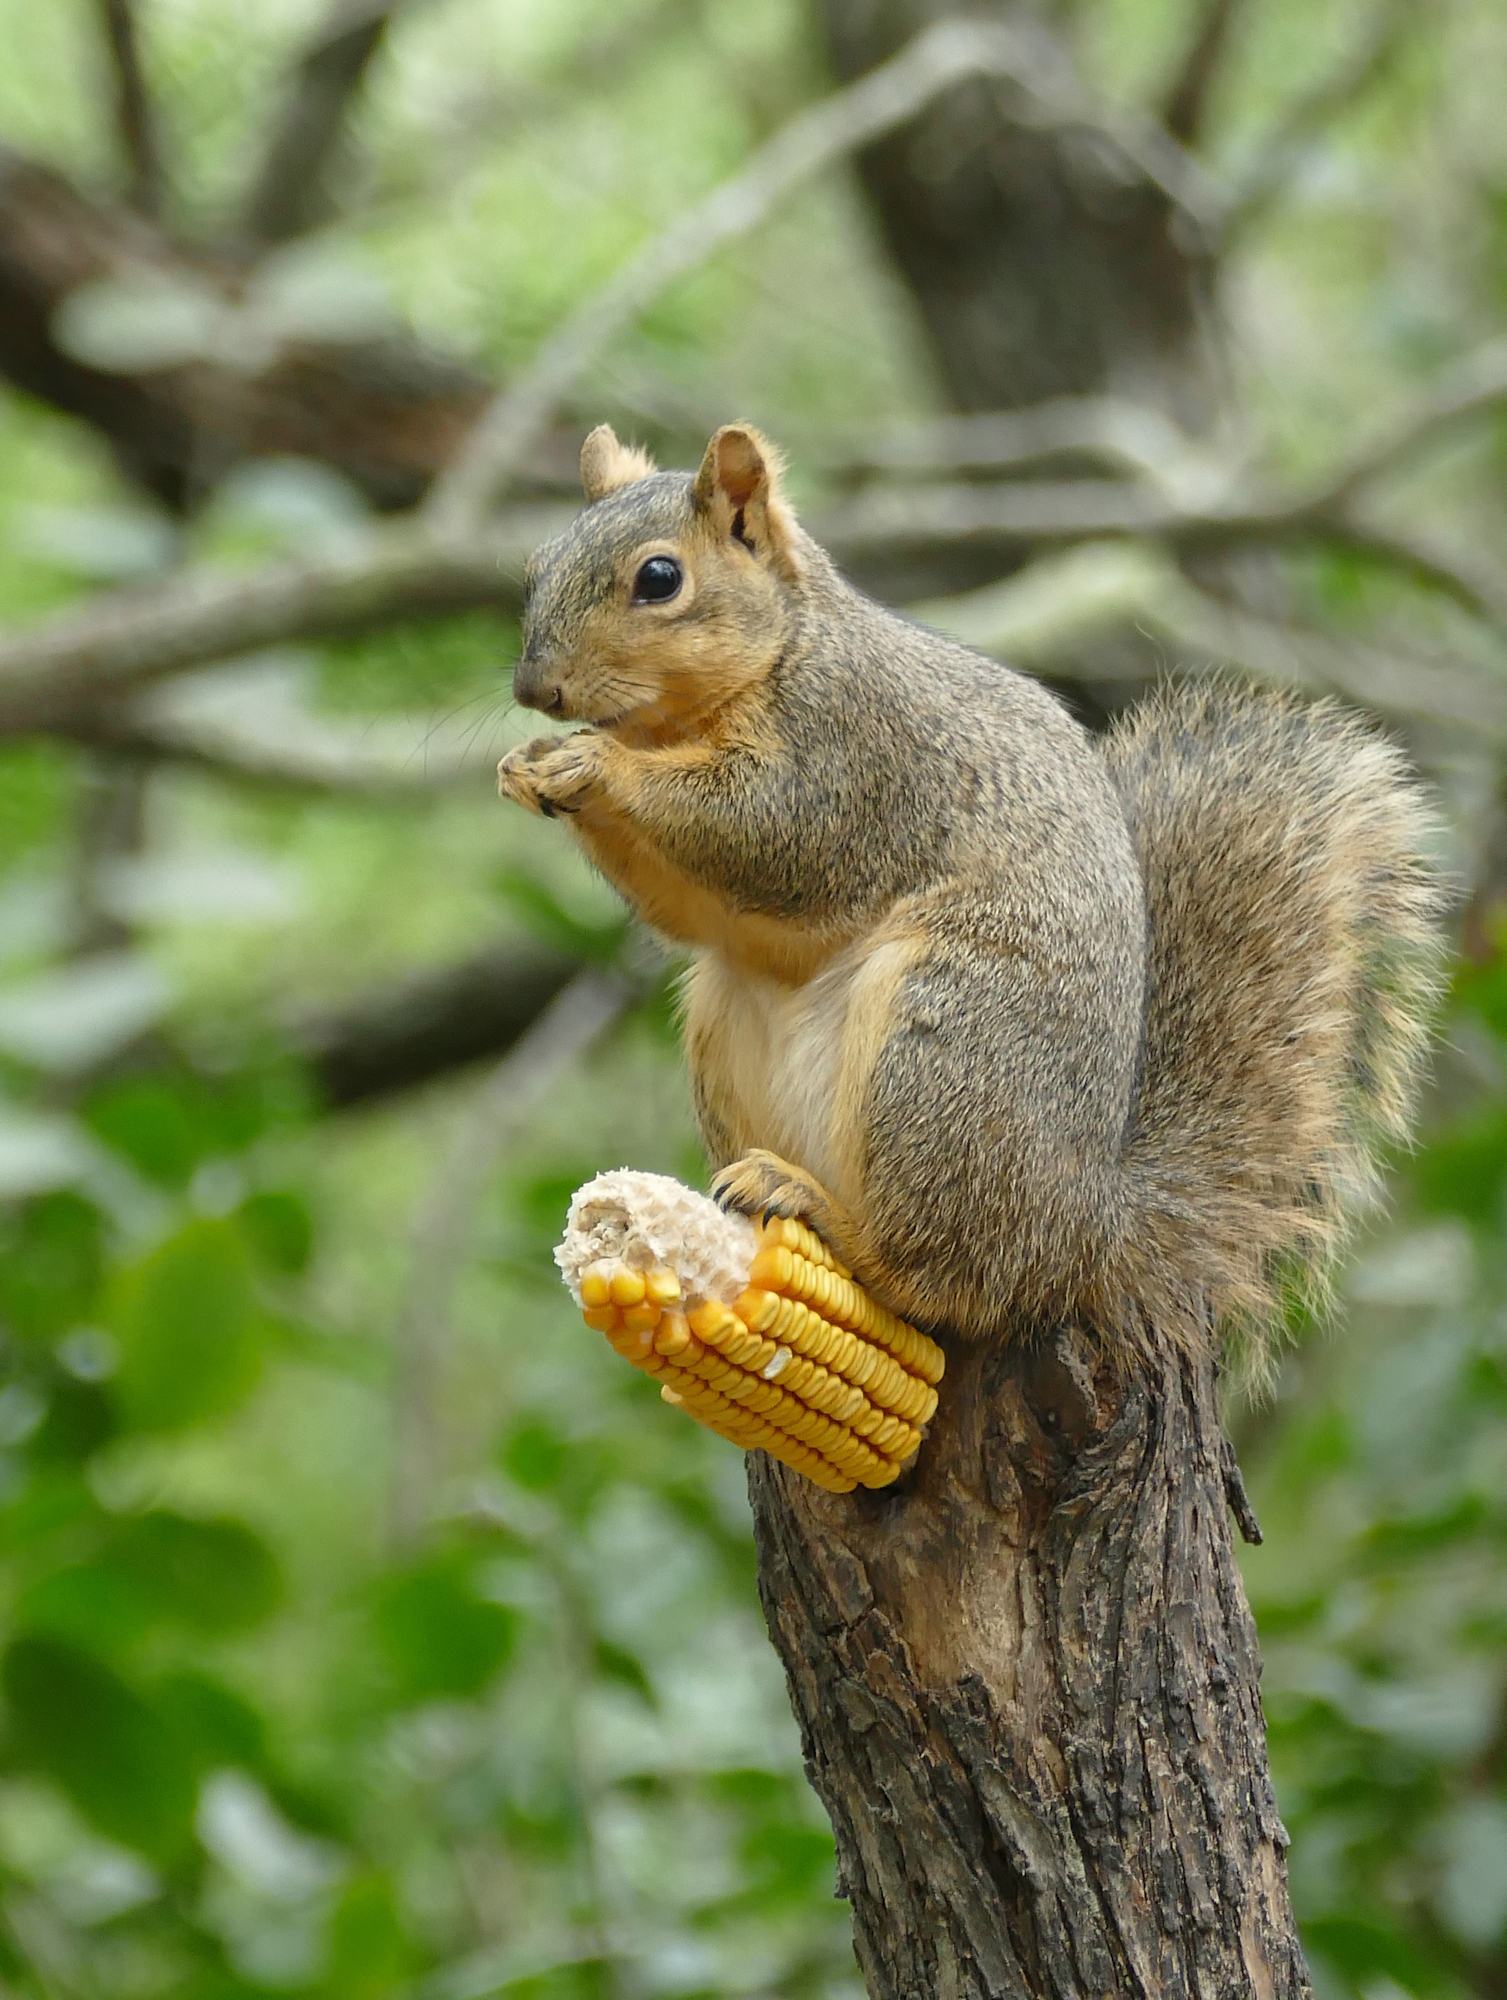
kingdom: Animalia
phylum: Chordata
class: Mammalia
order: Rodentia
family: Sciuridae
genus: Sciurus
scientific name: Sciurus niger
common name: Fox squirrel
